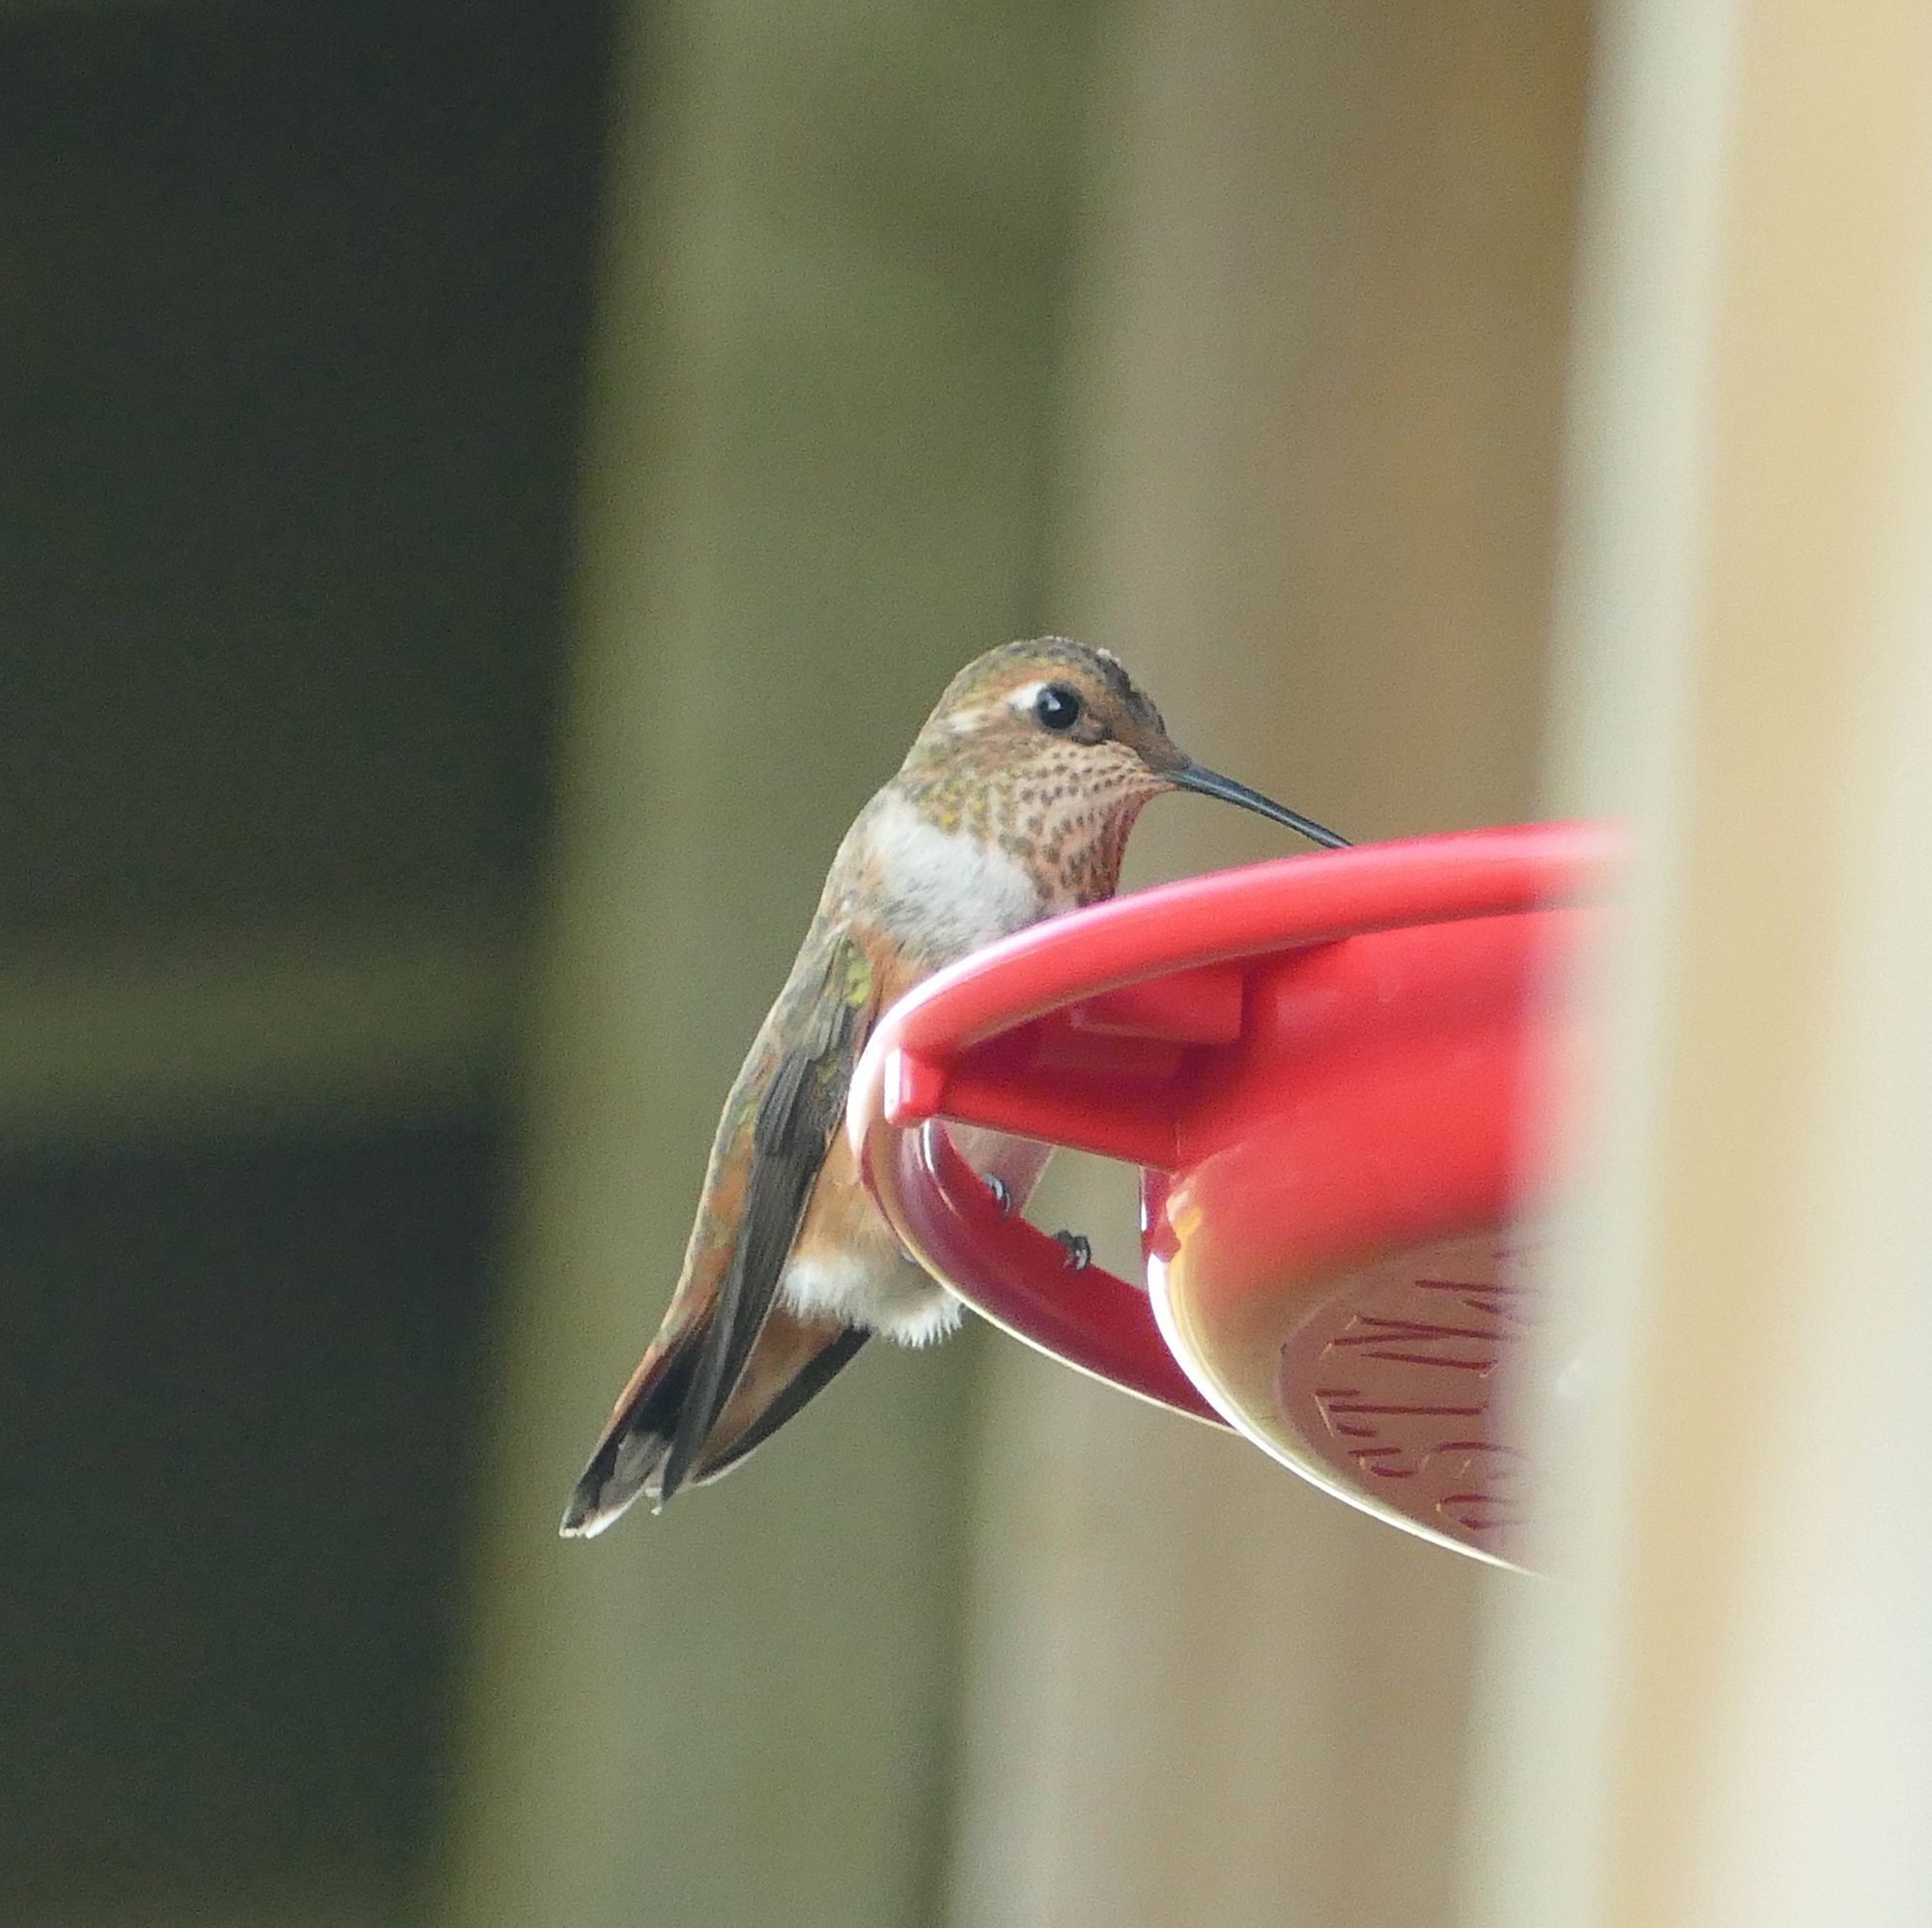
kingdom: Animalia
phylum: Chordata
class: Aves
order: Apodiformes
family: Trochilidae
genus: Selasphorus
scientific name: Selasphorus rufus
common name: Rufous hummingbird
